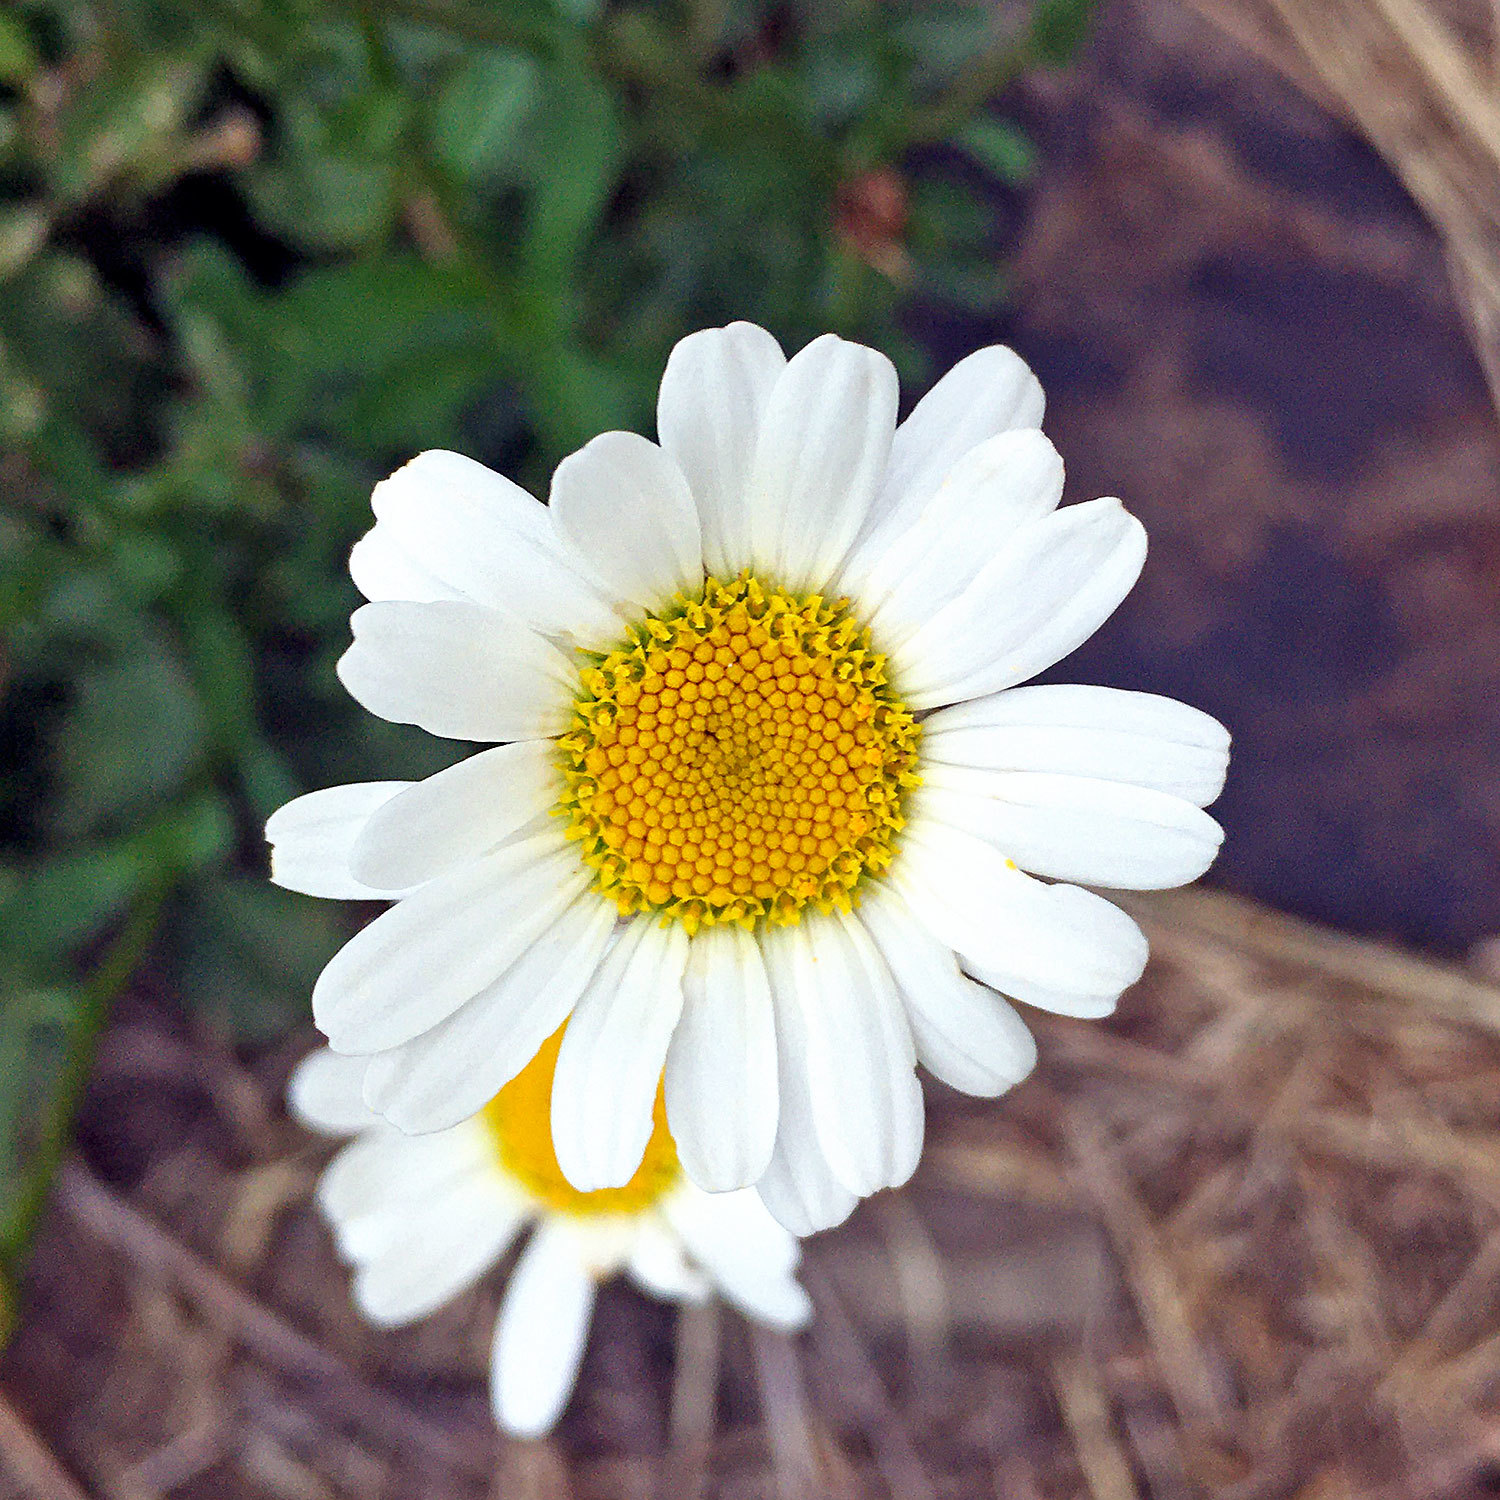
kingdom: Plantae
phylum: Tracheophyta
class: Magnoliopsida
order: Asterales
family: Asteraceae
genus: Leucanthemum
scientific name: Leucanthemum vulgare
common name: Oxeye daisy
